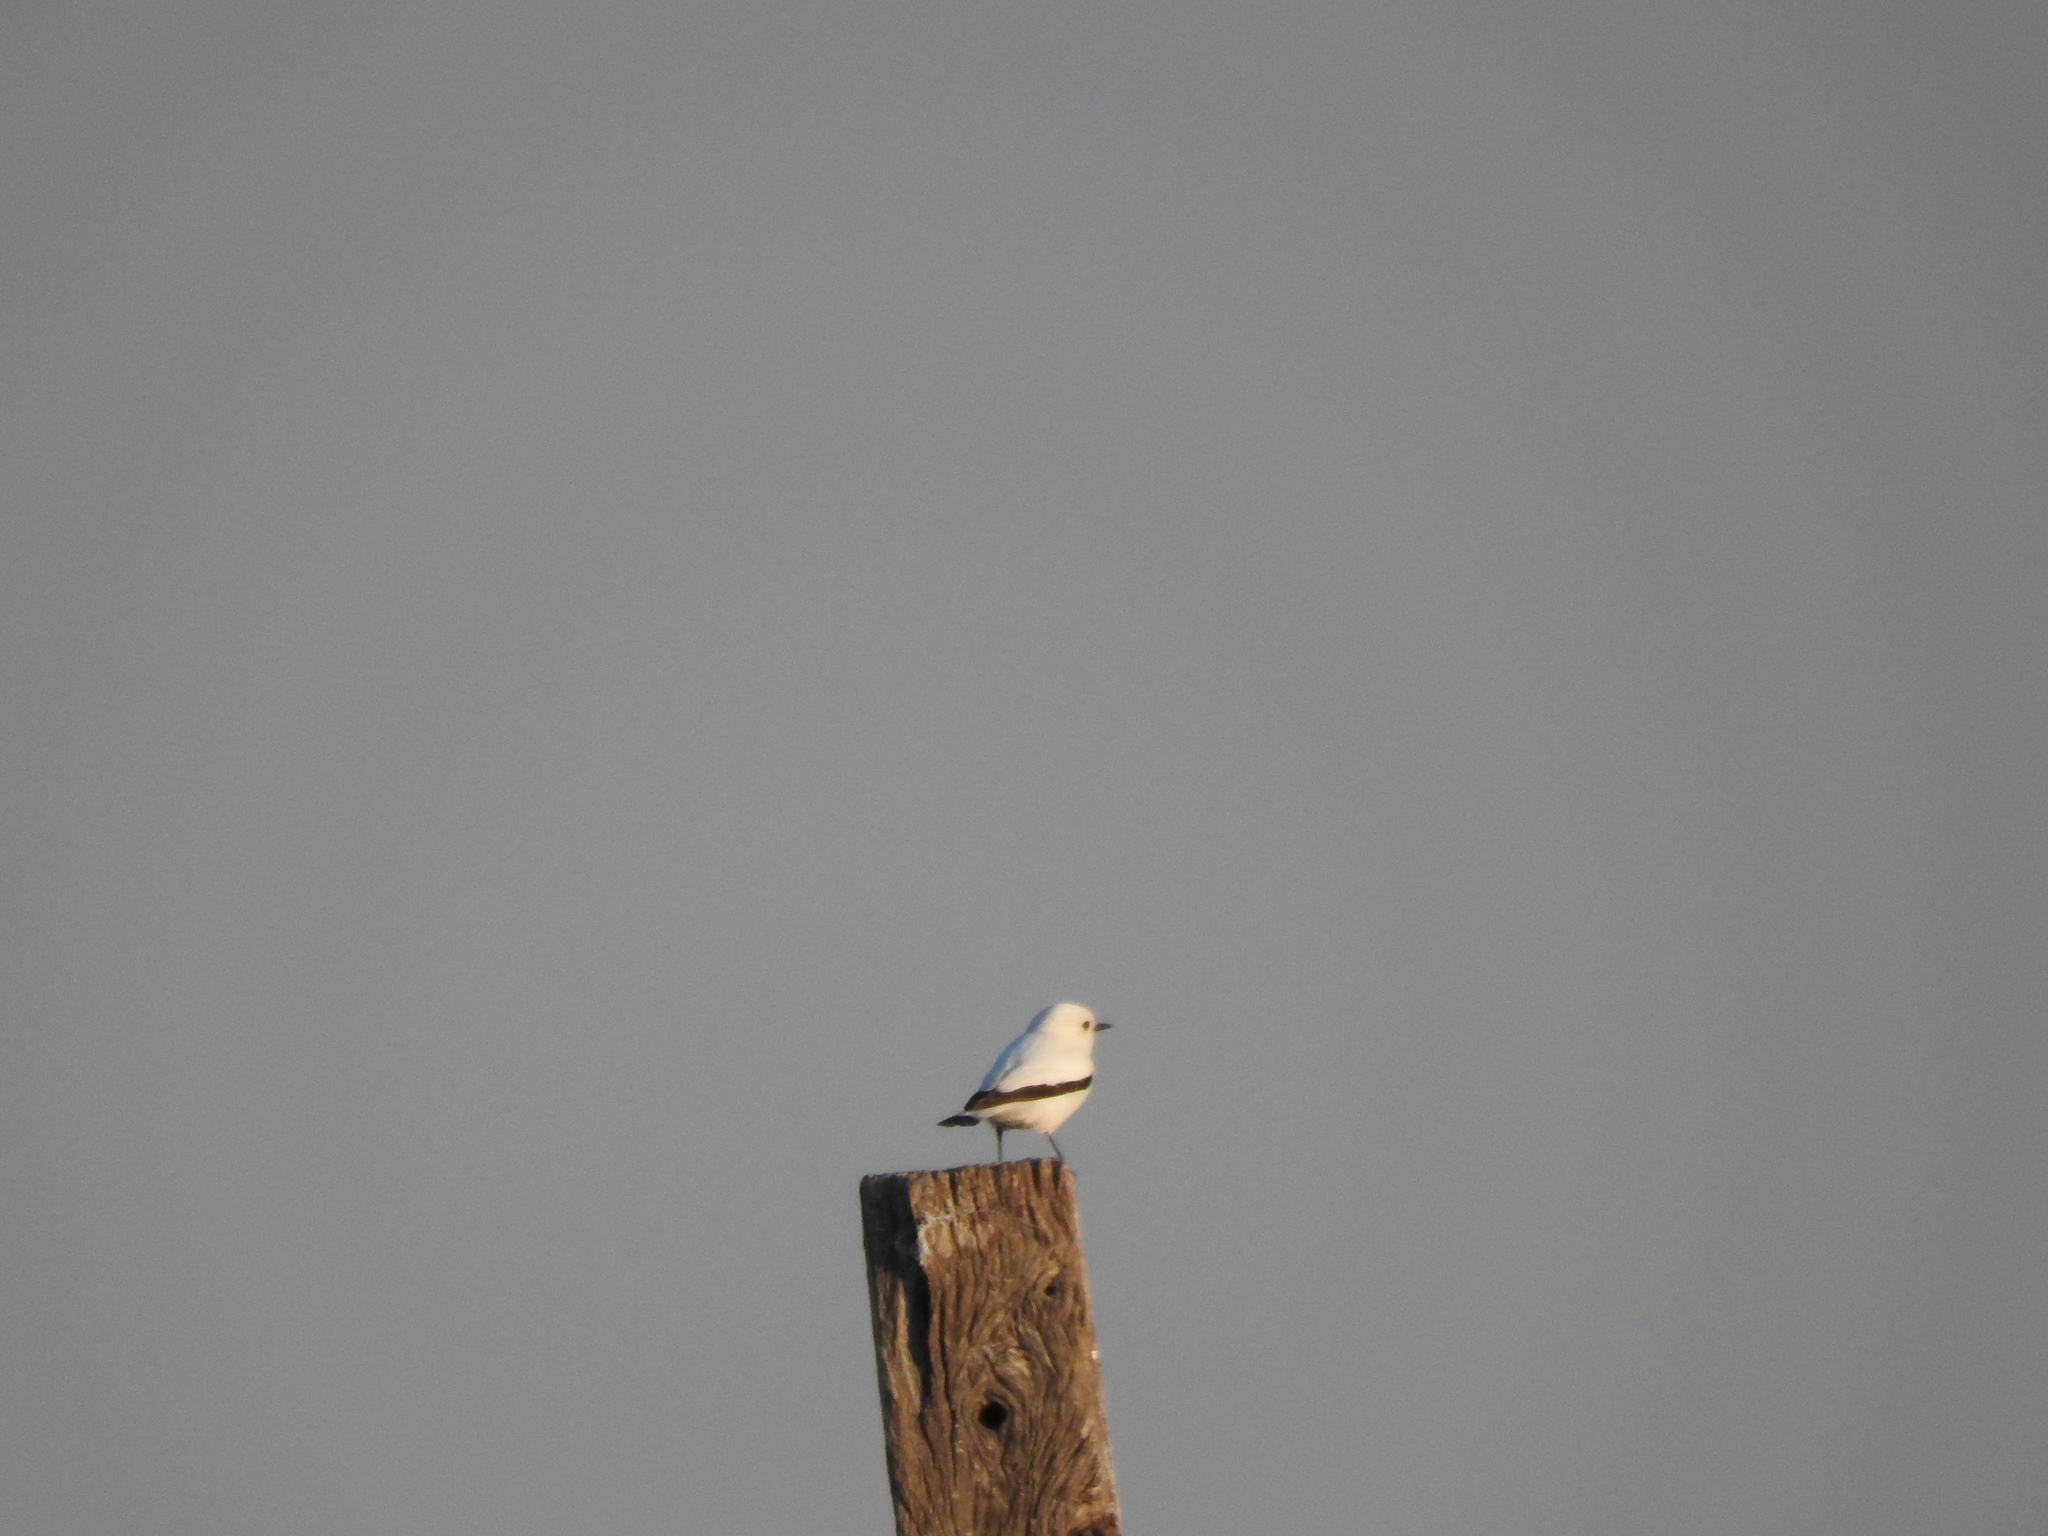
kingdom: Animalia
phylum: Chordata
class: Aves
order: Passeriformes
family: Tyrannidae
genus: Xolmis
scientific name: Xolmis irupero
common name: White monjita
